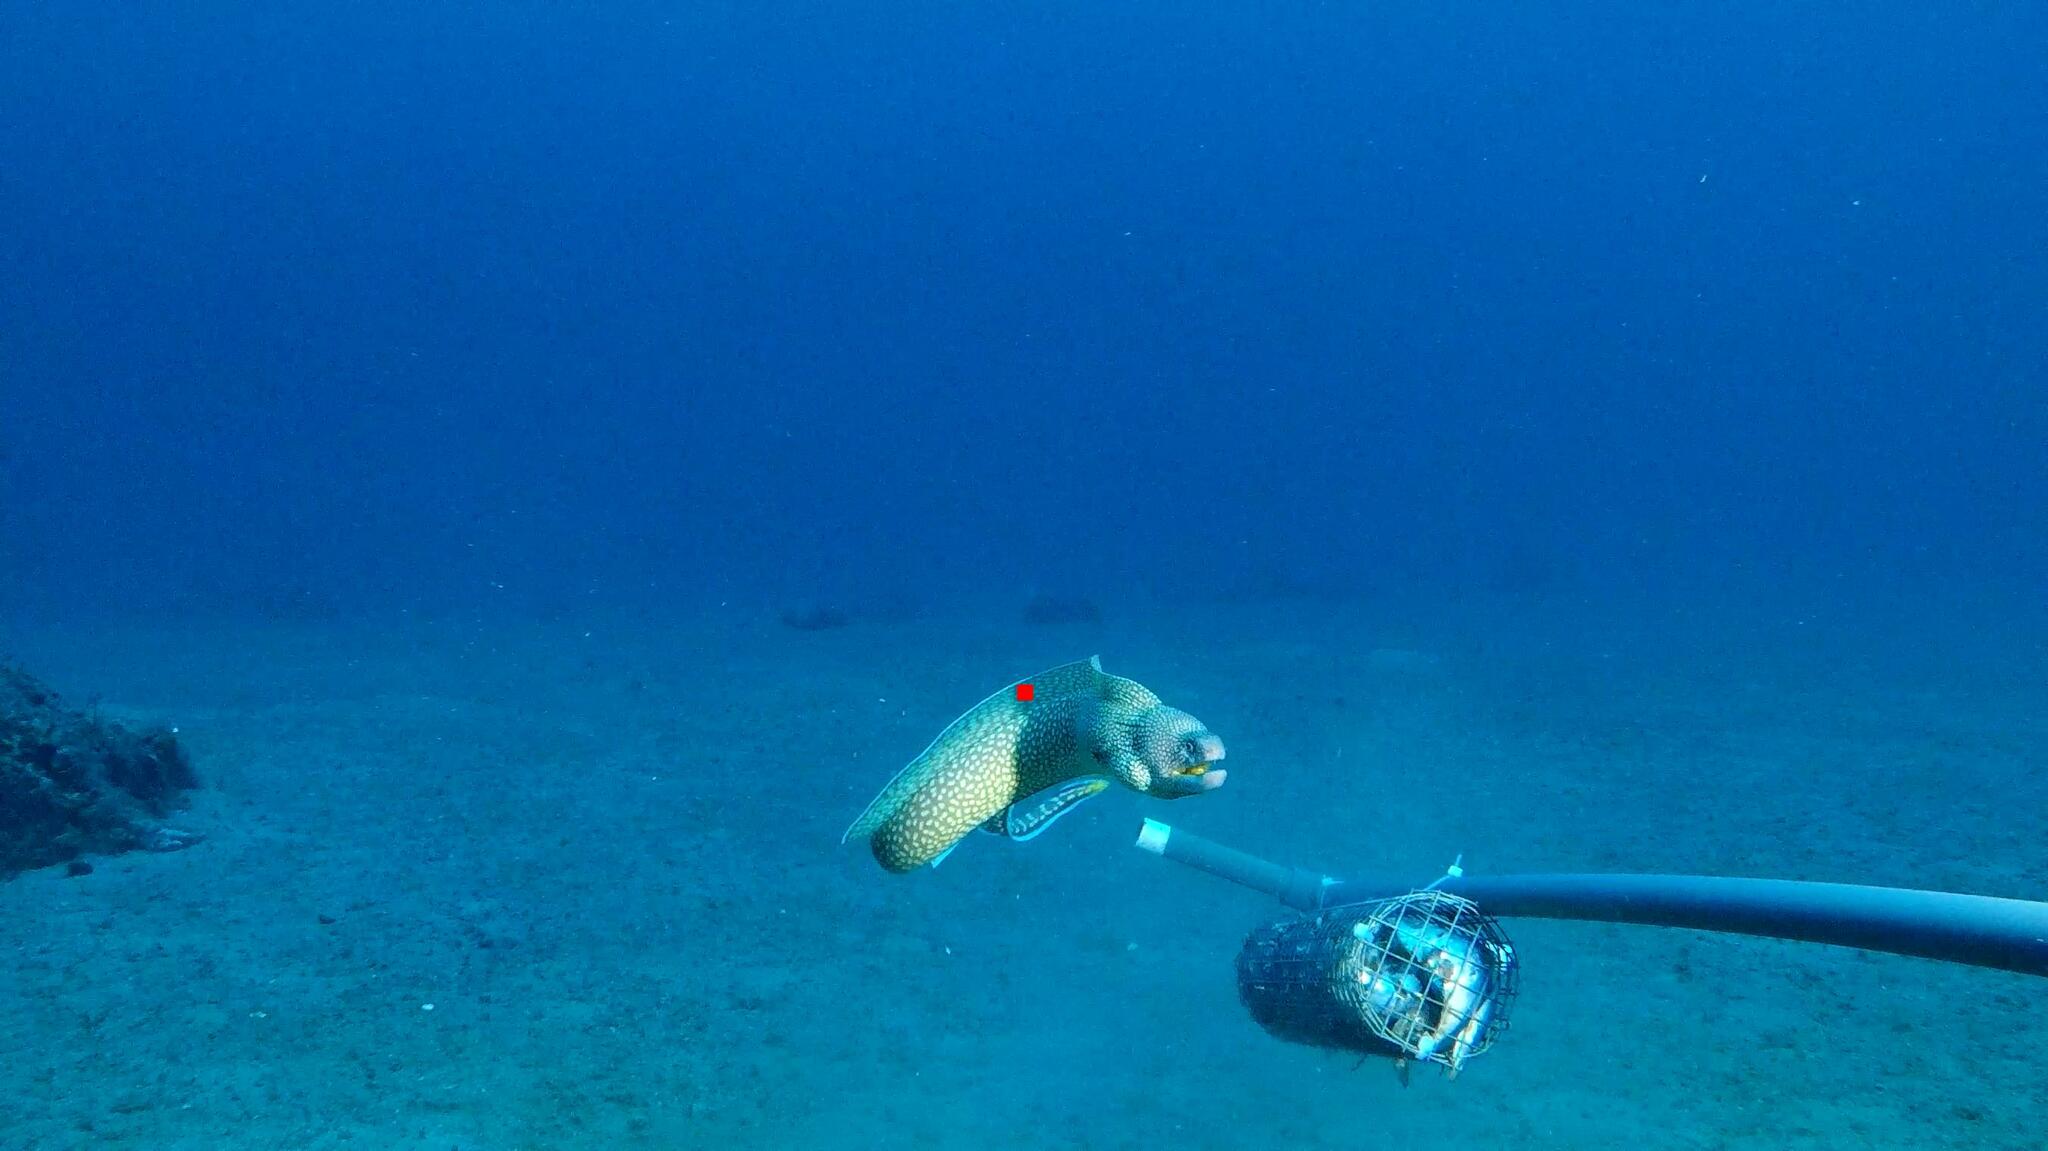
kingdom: Animalia
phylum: Chordata
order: Anguilliformes
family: Muraenidae
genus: Gymnothorax
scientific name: Gymnothorax elegans
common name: Elegant moray
